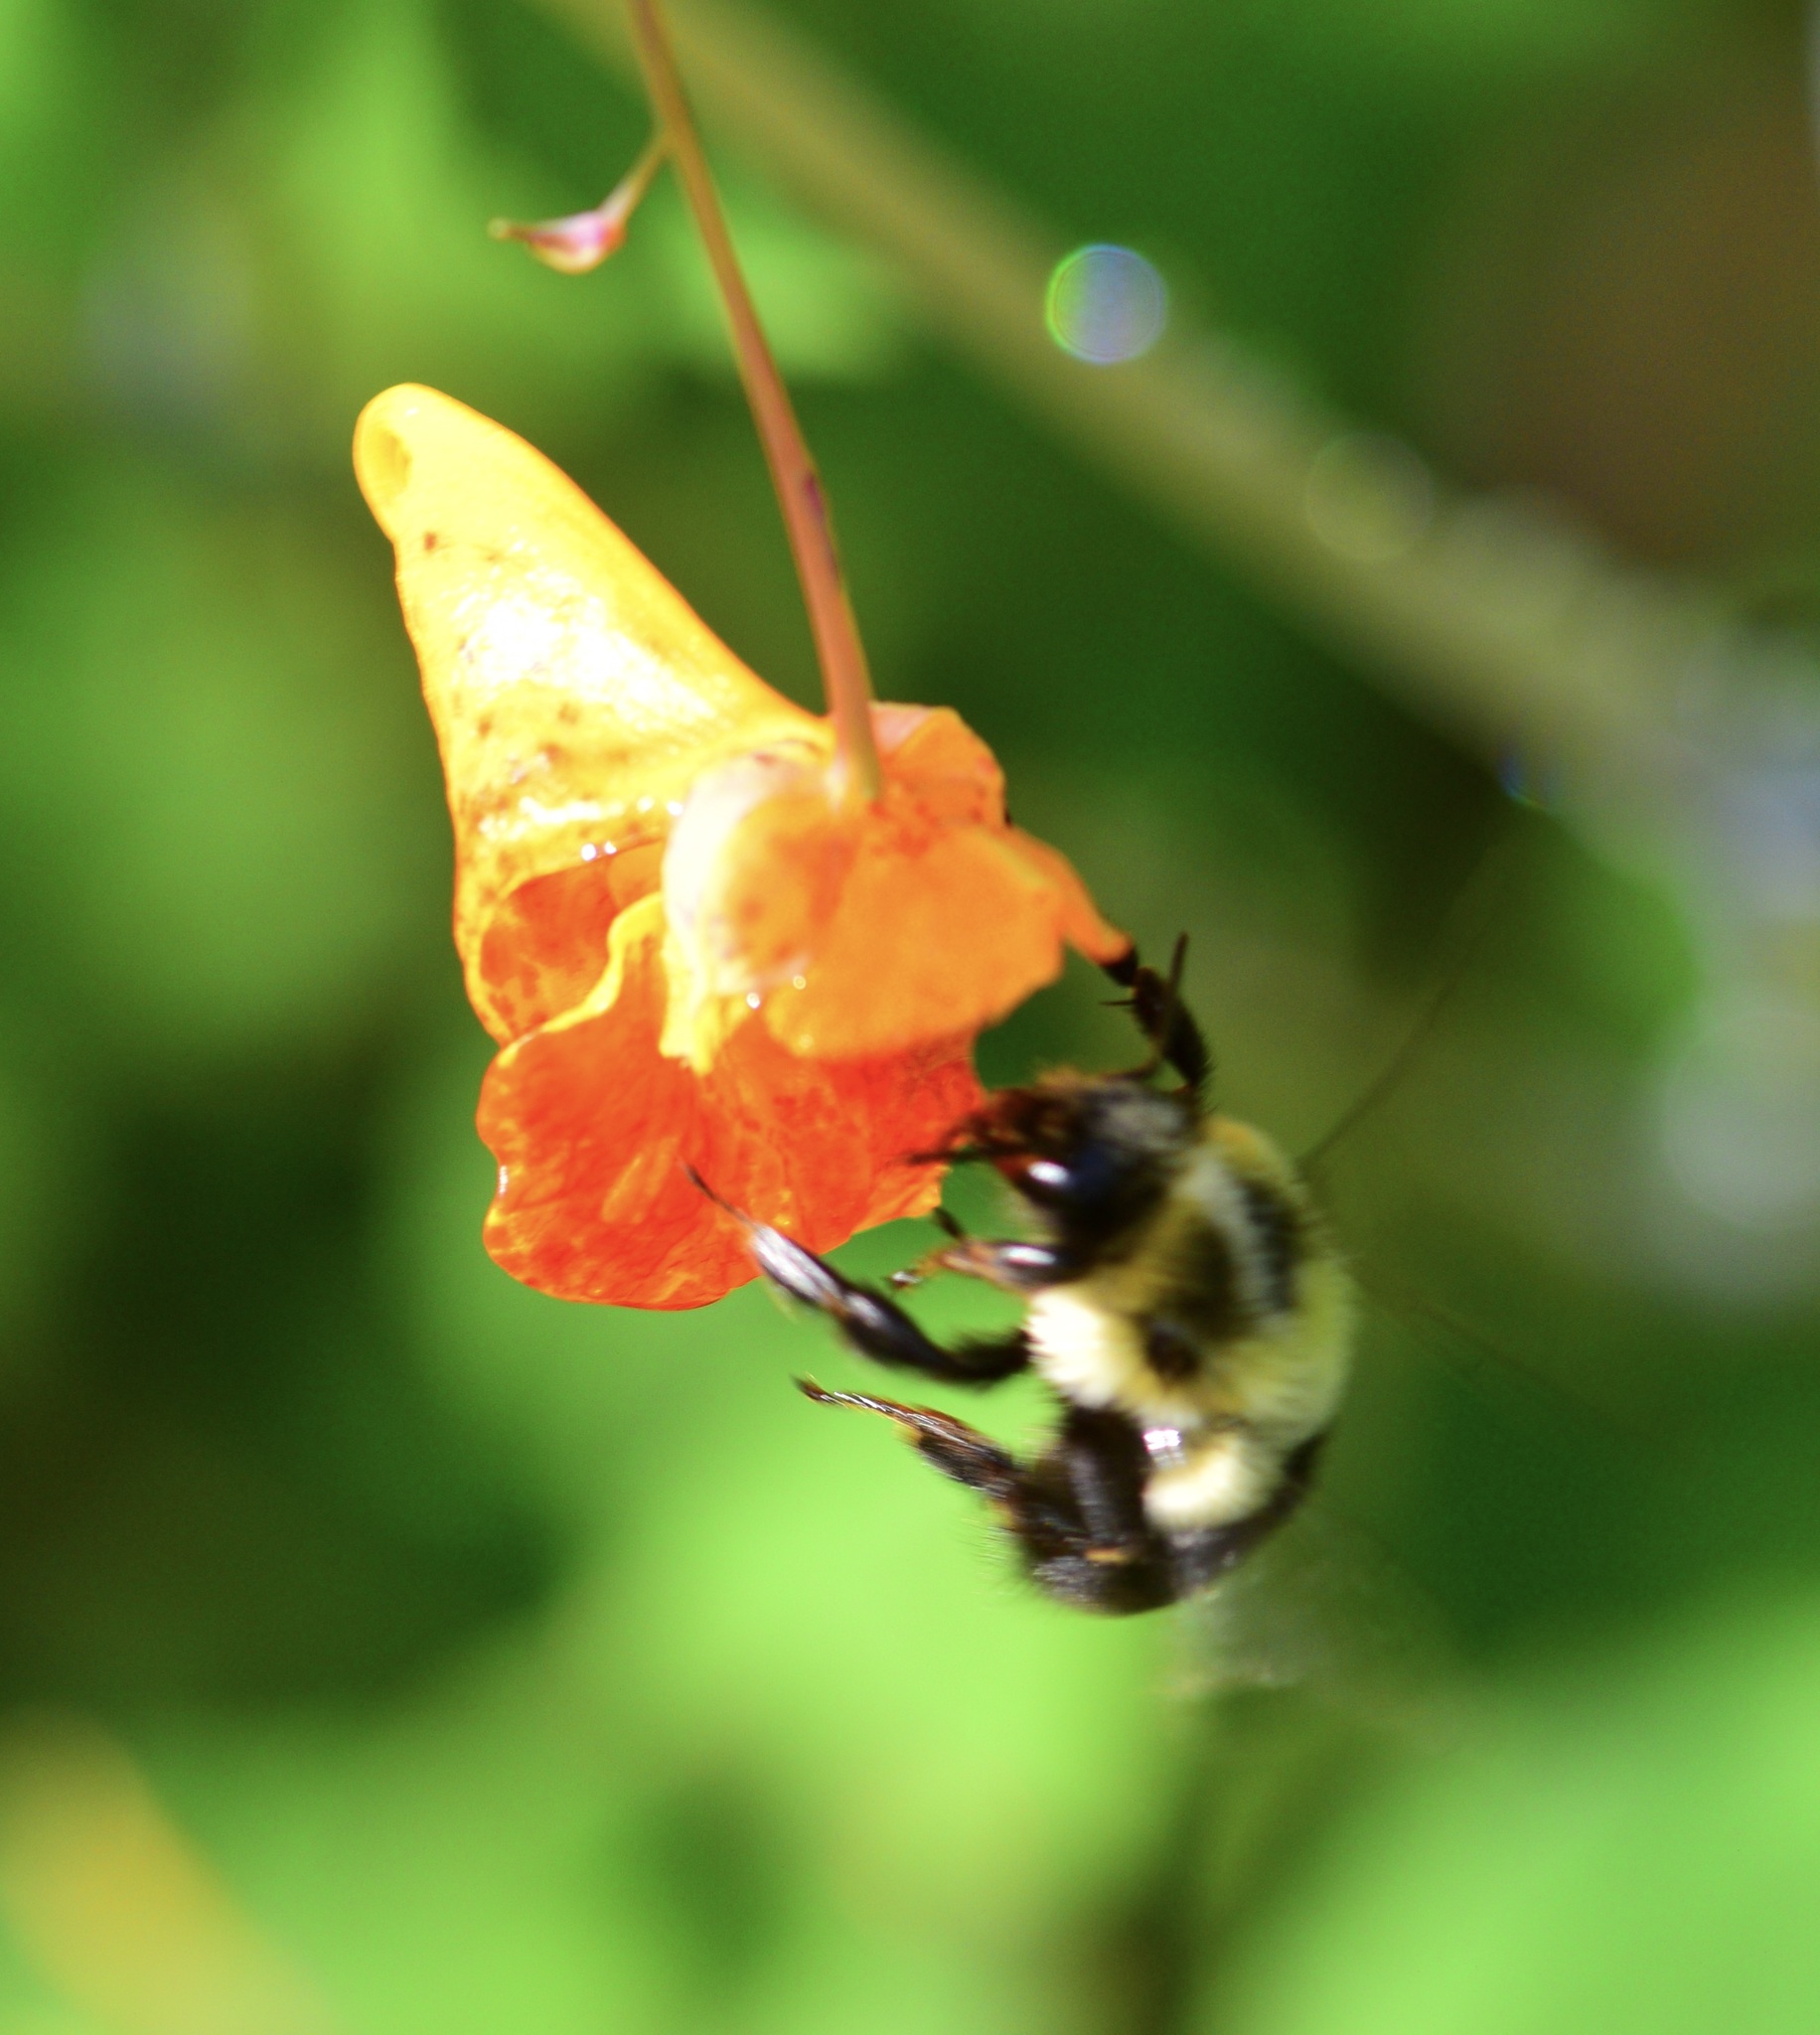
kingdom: Animalia
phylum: Arthropoda
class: Insecta
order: Hymenoptera
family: Apidae
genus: Bombus
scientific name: Bombus impatiens
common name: Common eastern bumble bee
